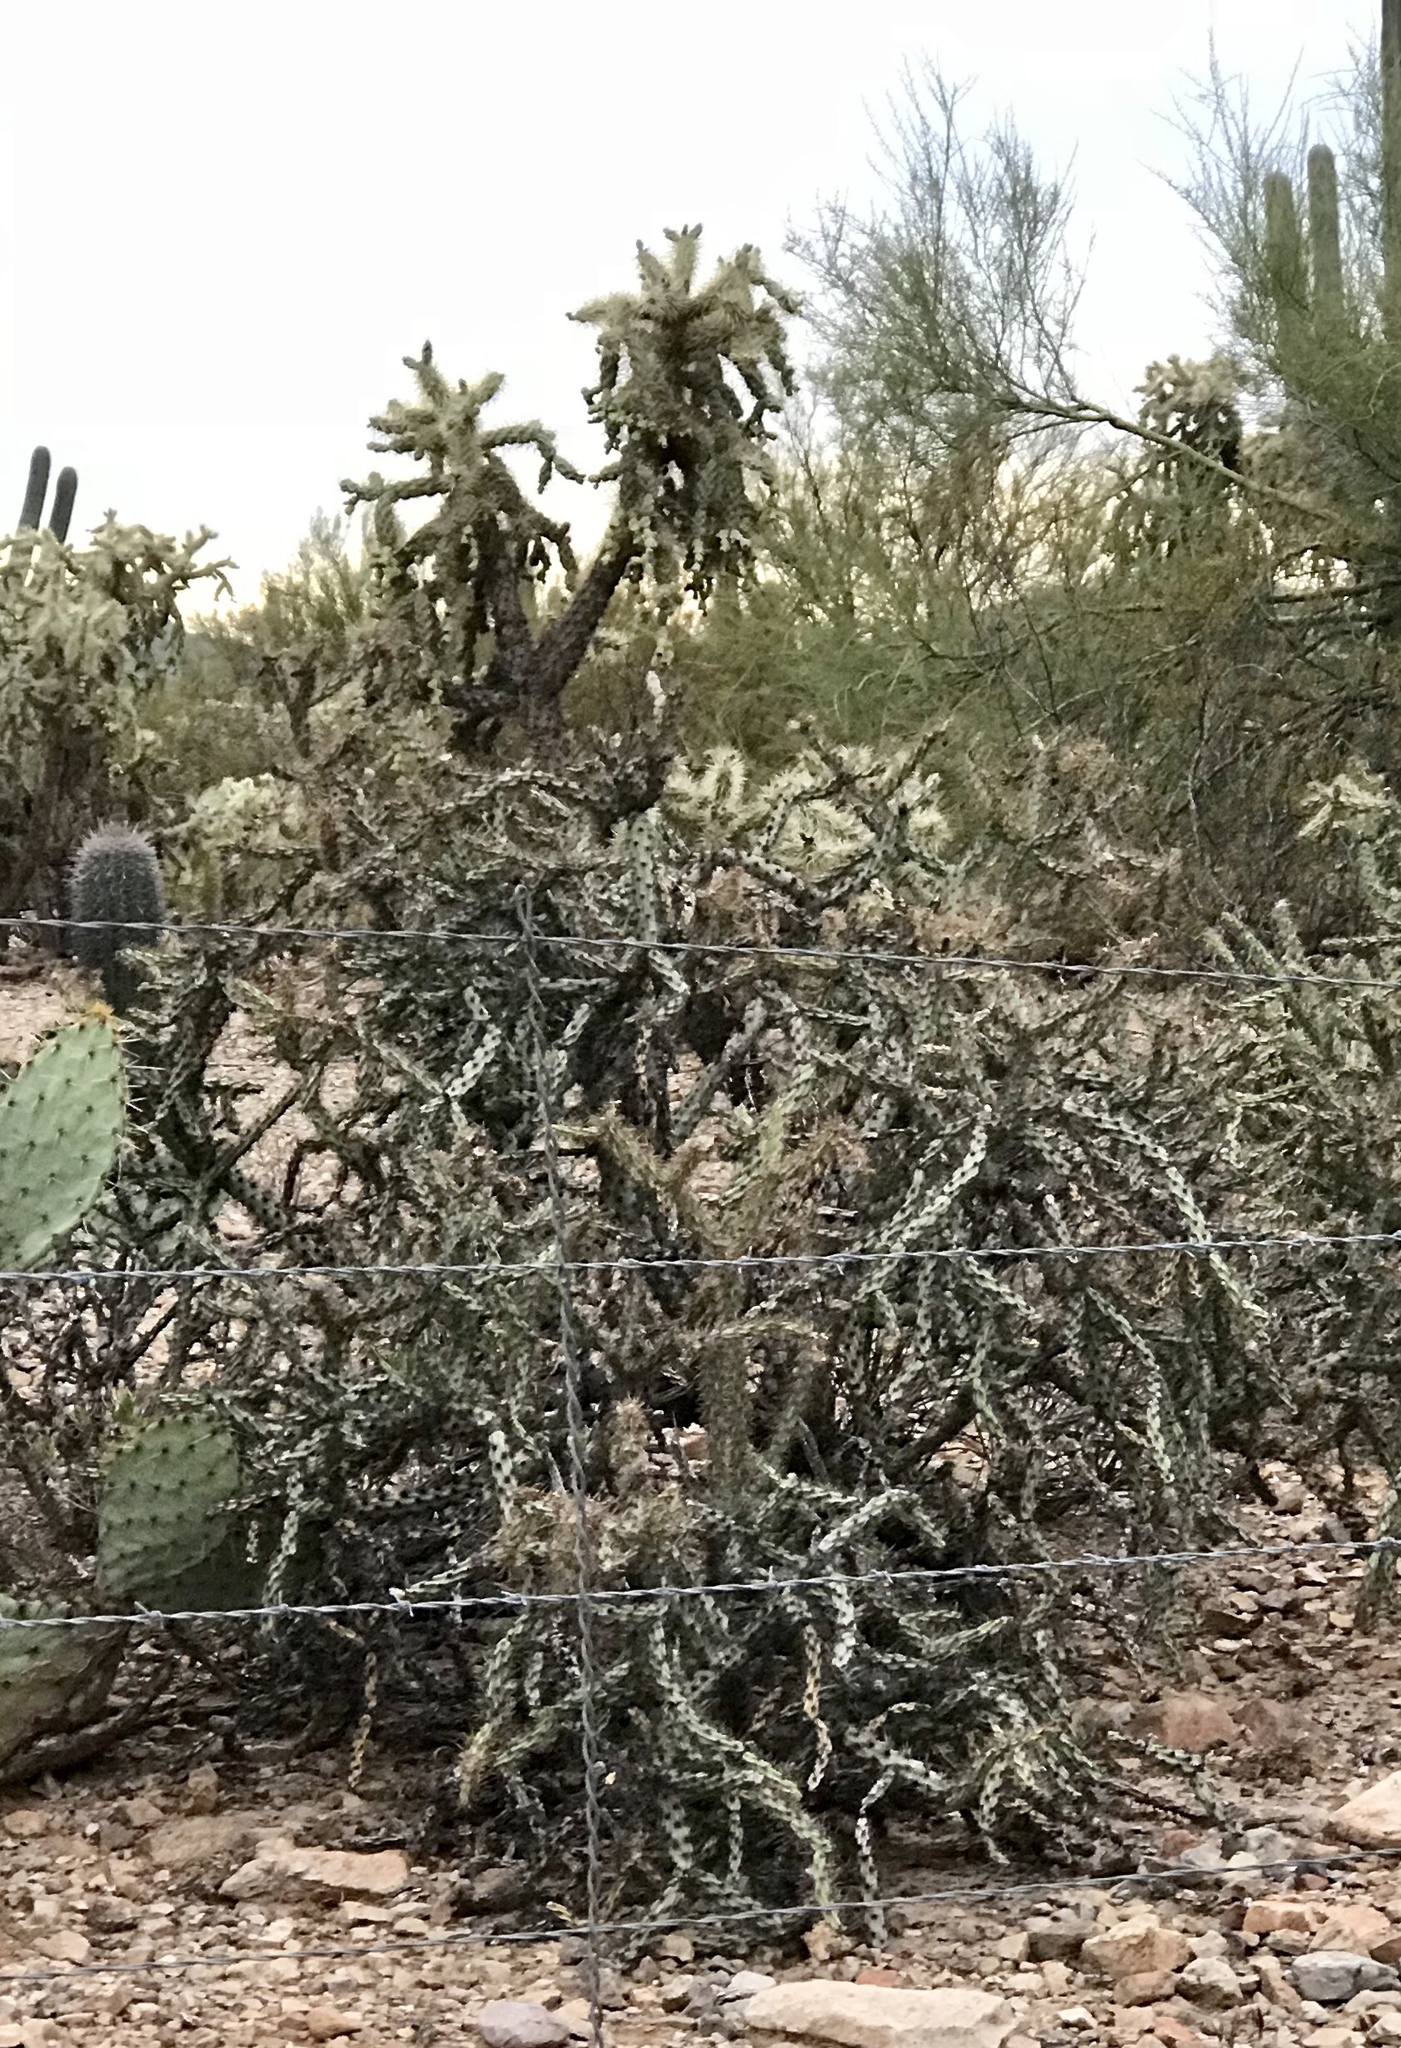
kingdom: Plantae
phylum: Tracheophyta
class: Magnoliopsida
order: Caryophyllales
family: Cactaceae
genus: Cylindropuntia
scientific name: Cylindropuntia thurberi
